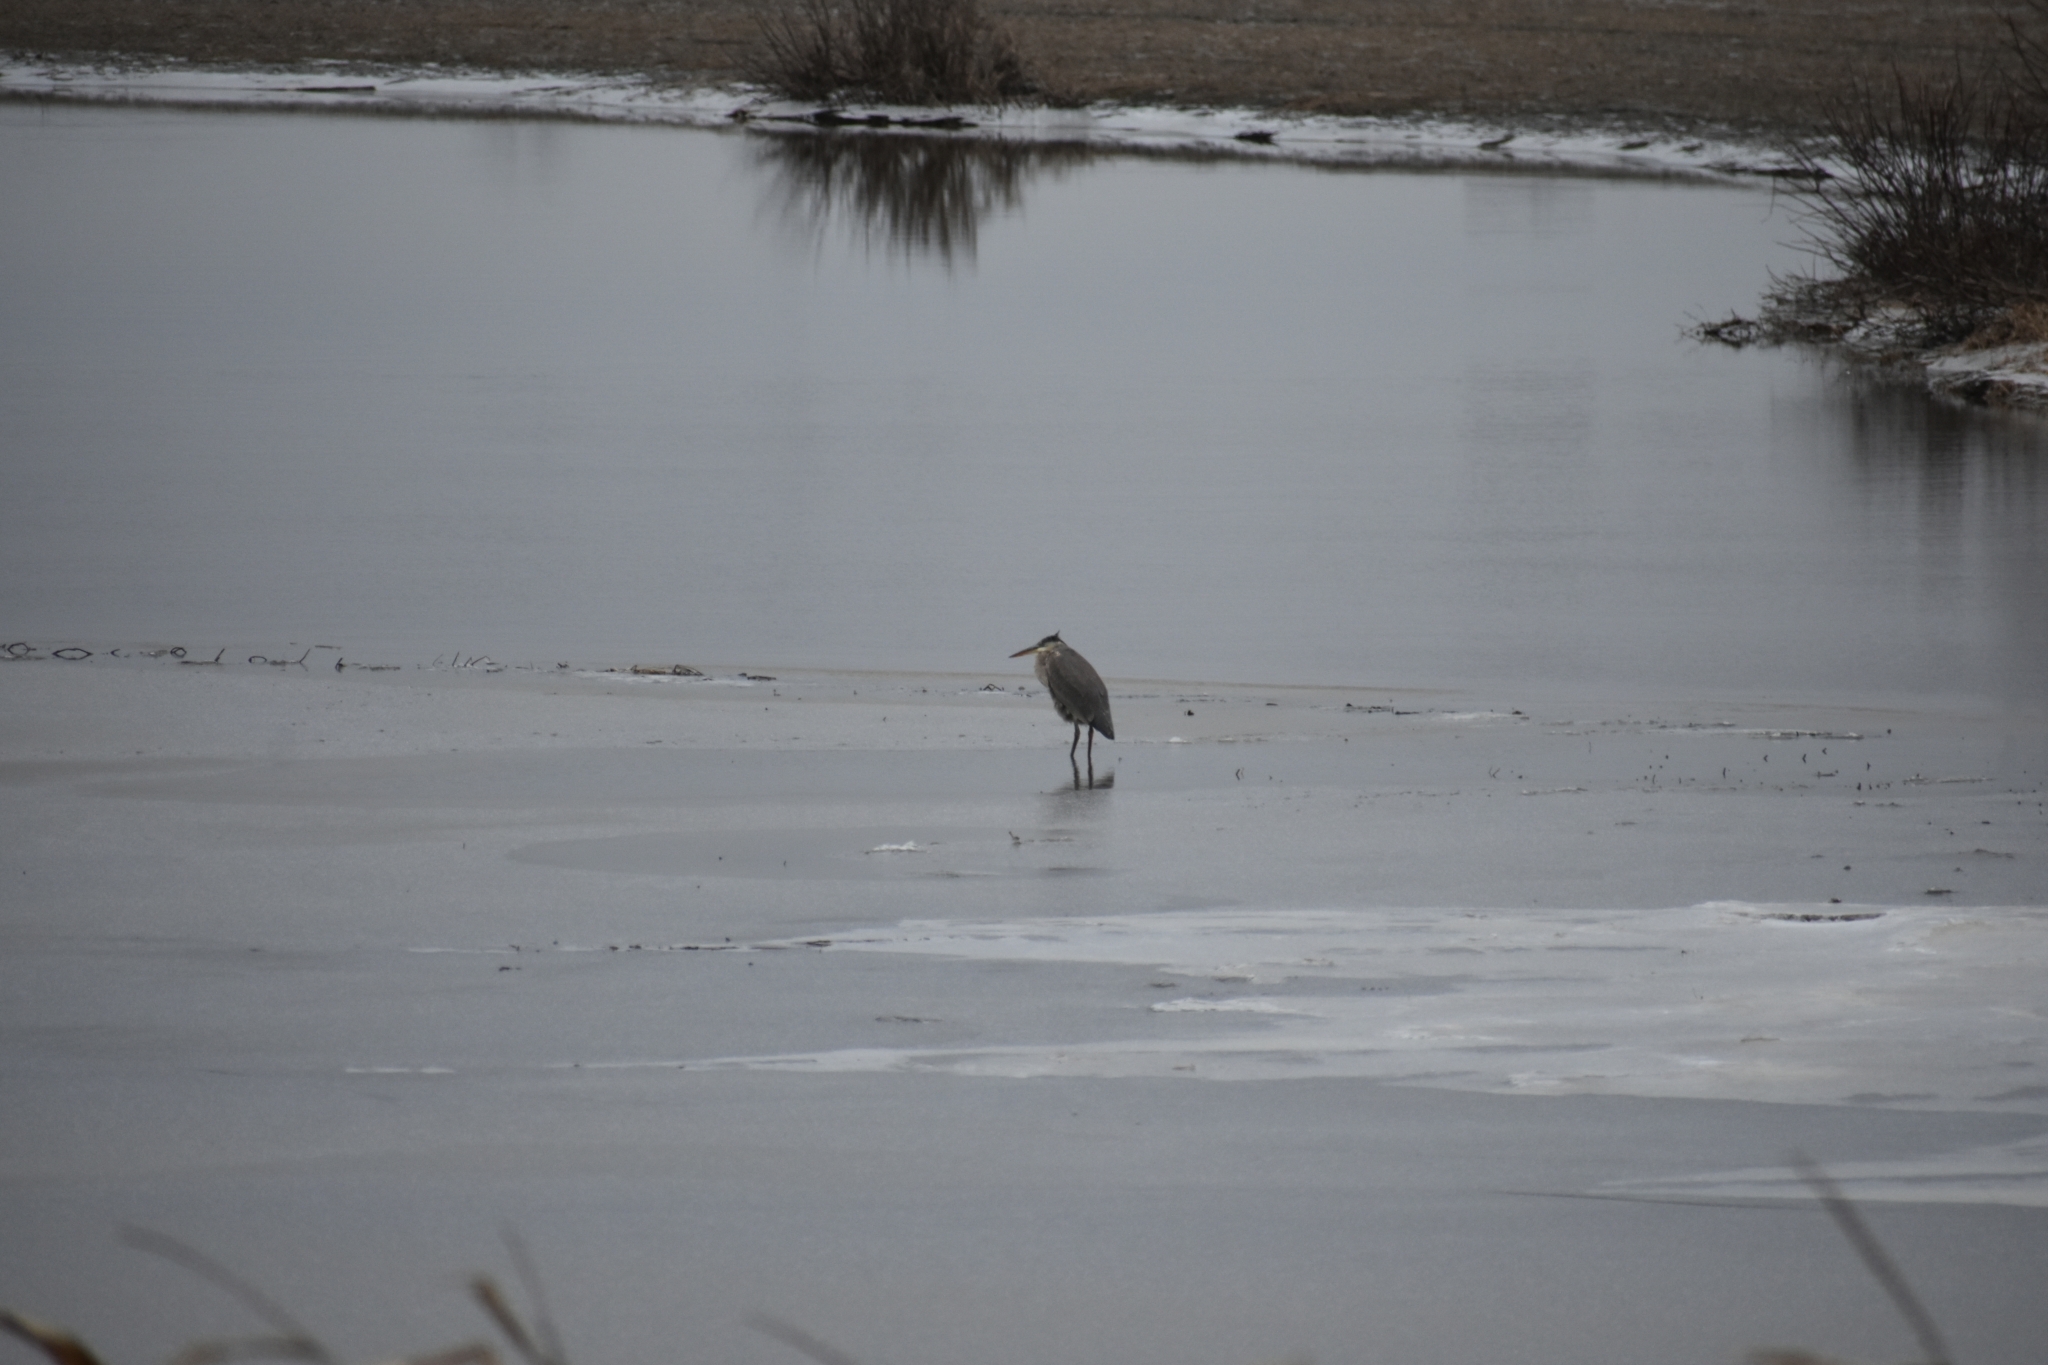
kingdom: Animalia
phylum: Chordata
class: Aves
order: Pelecaniformes
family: Ardeidae
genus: Ardea
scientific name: Ardea herodias
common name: Great blue heron
